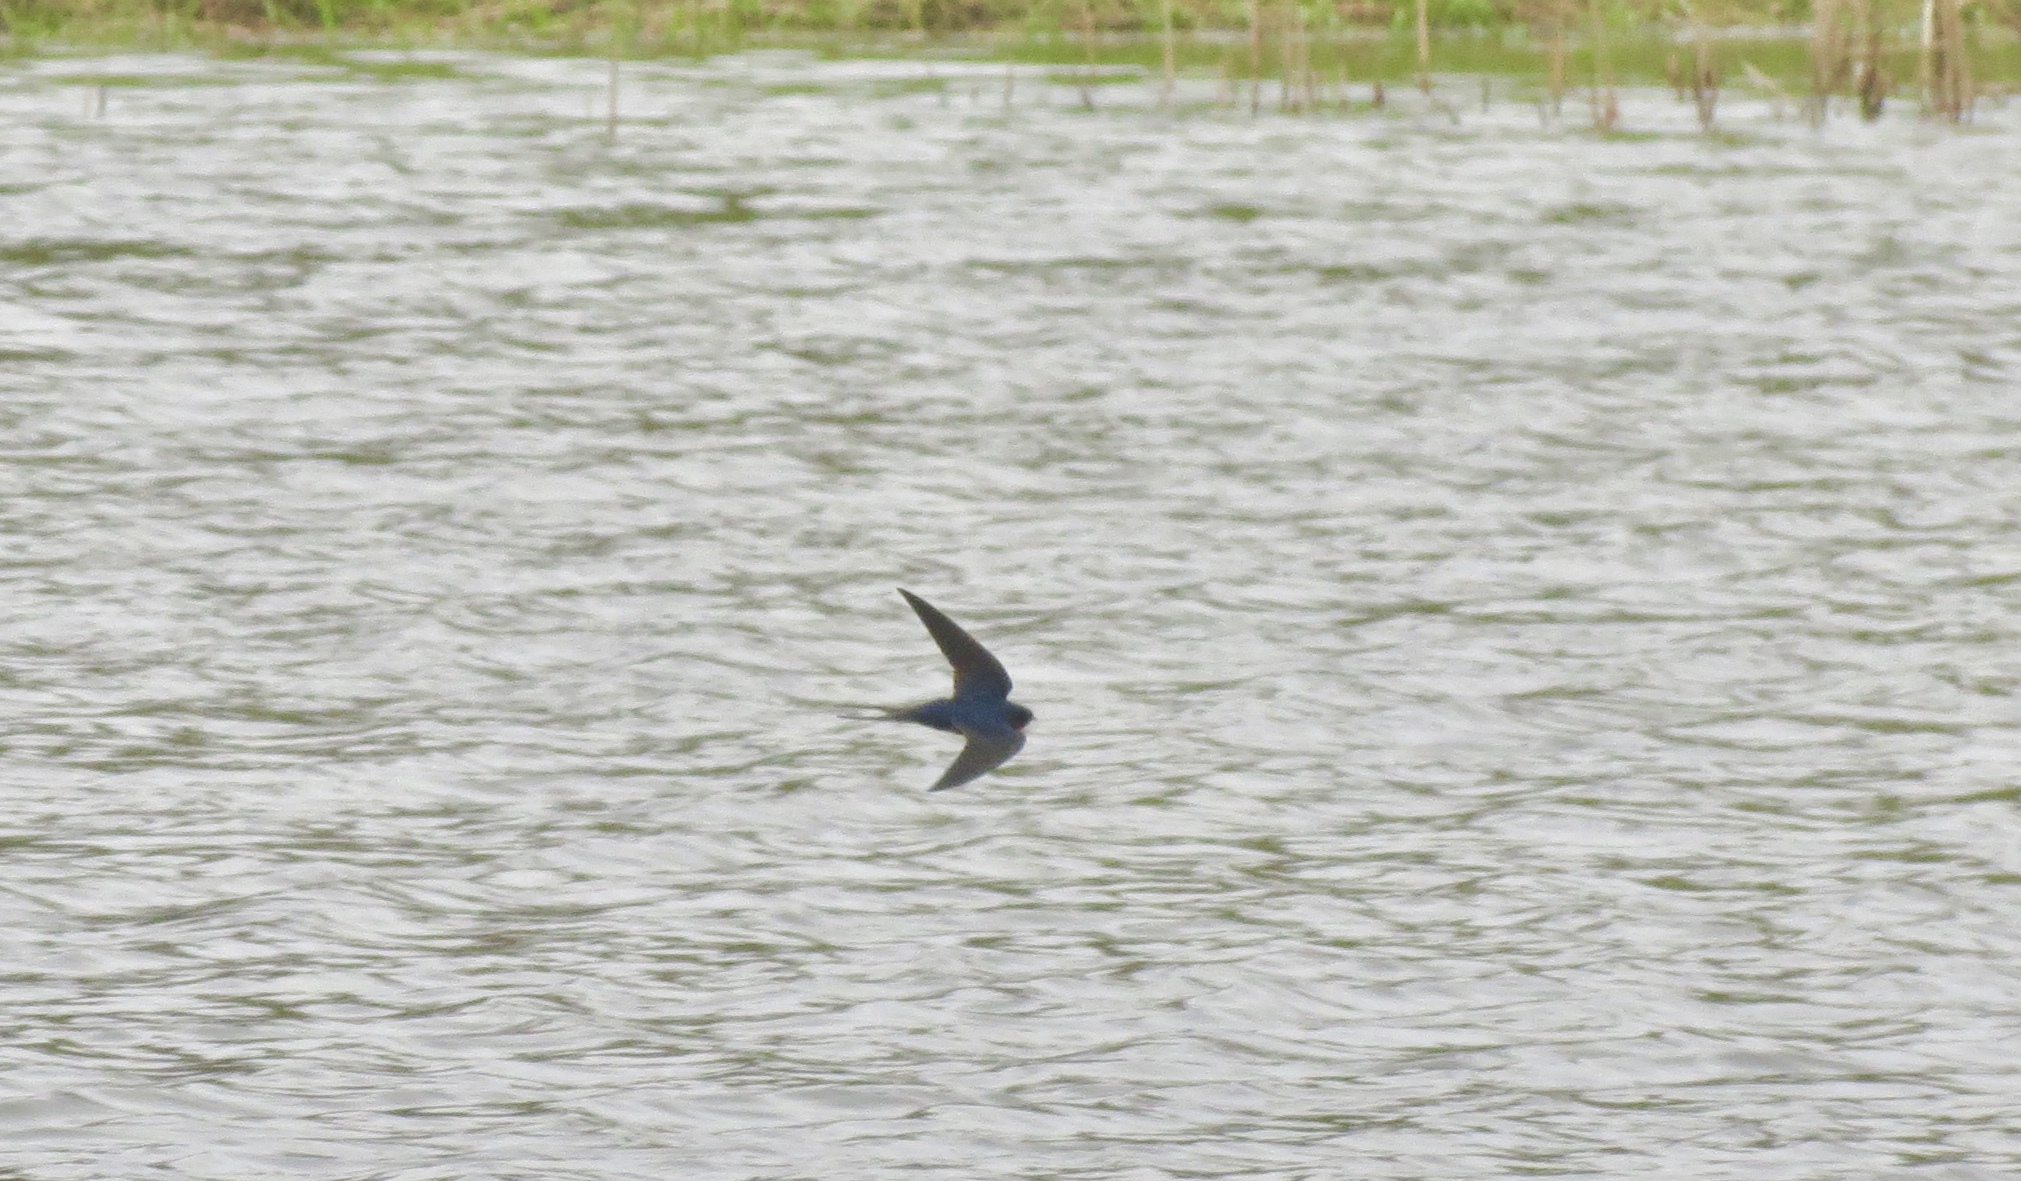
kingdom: Animalia
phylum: Chordata
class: Aves
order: Passeriformes
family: Hirundinidae
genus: Hirundo
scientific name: Hirundo rustica
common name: Barn swallow
